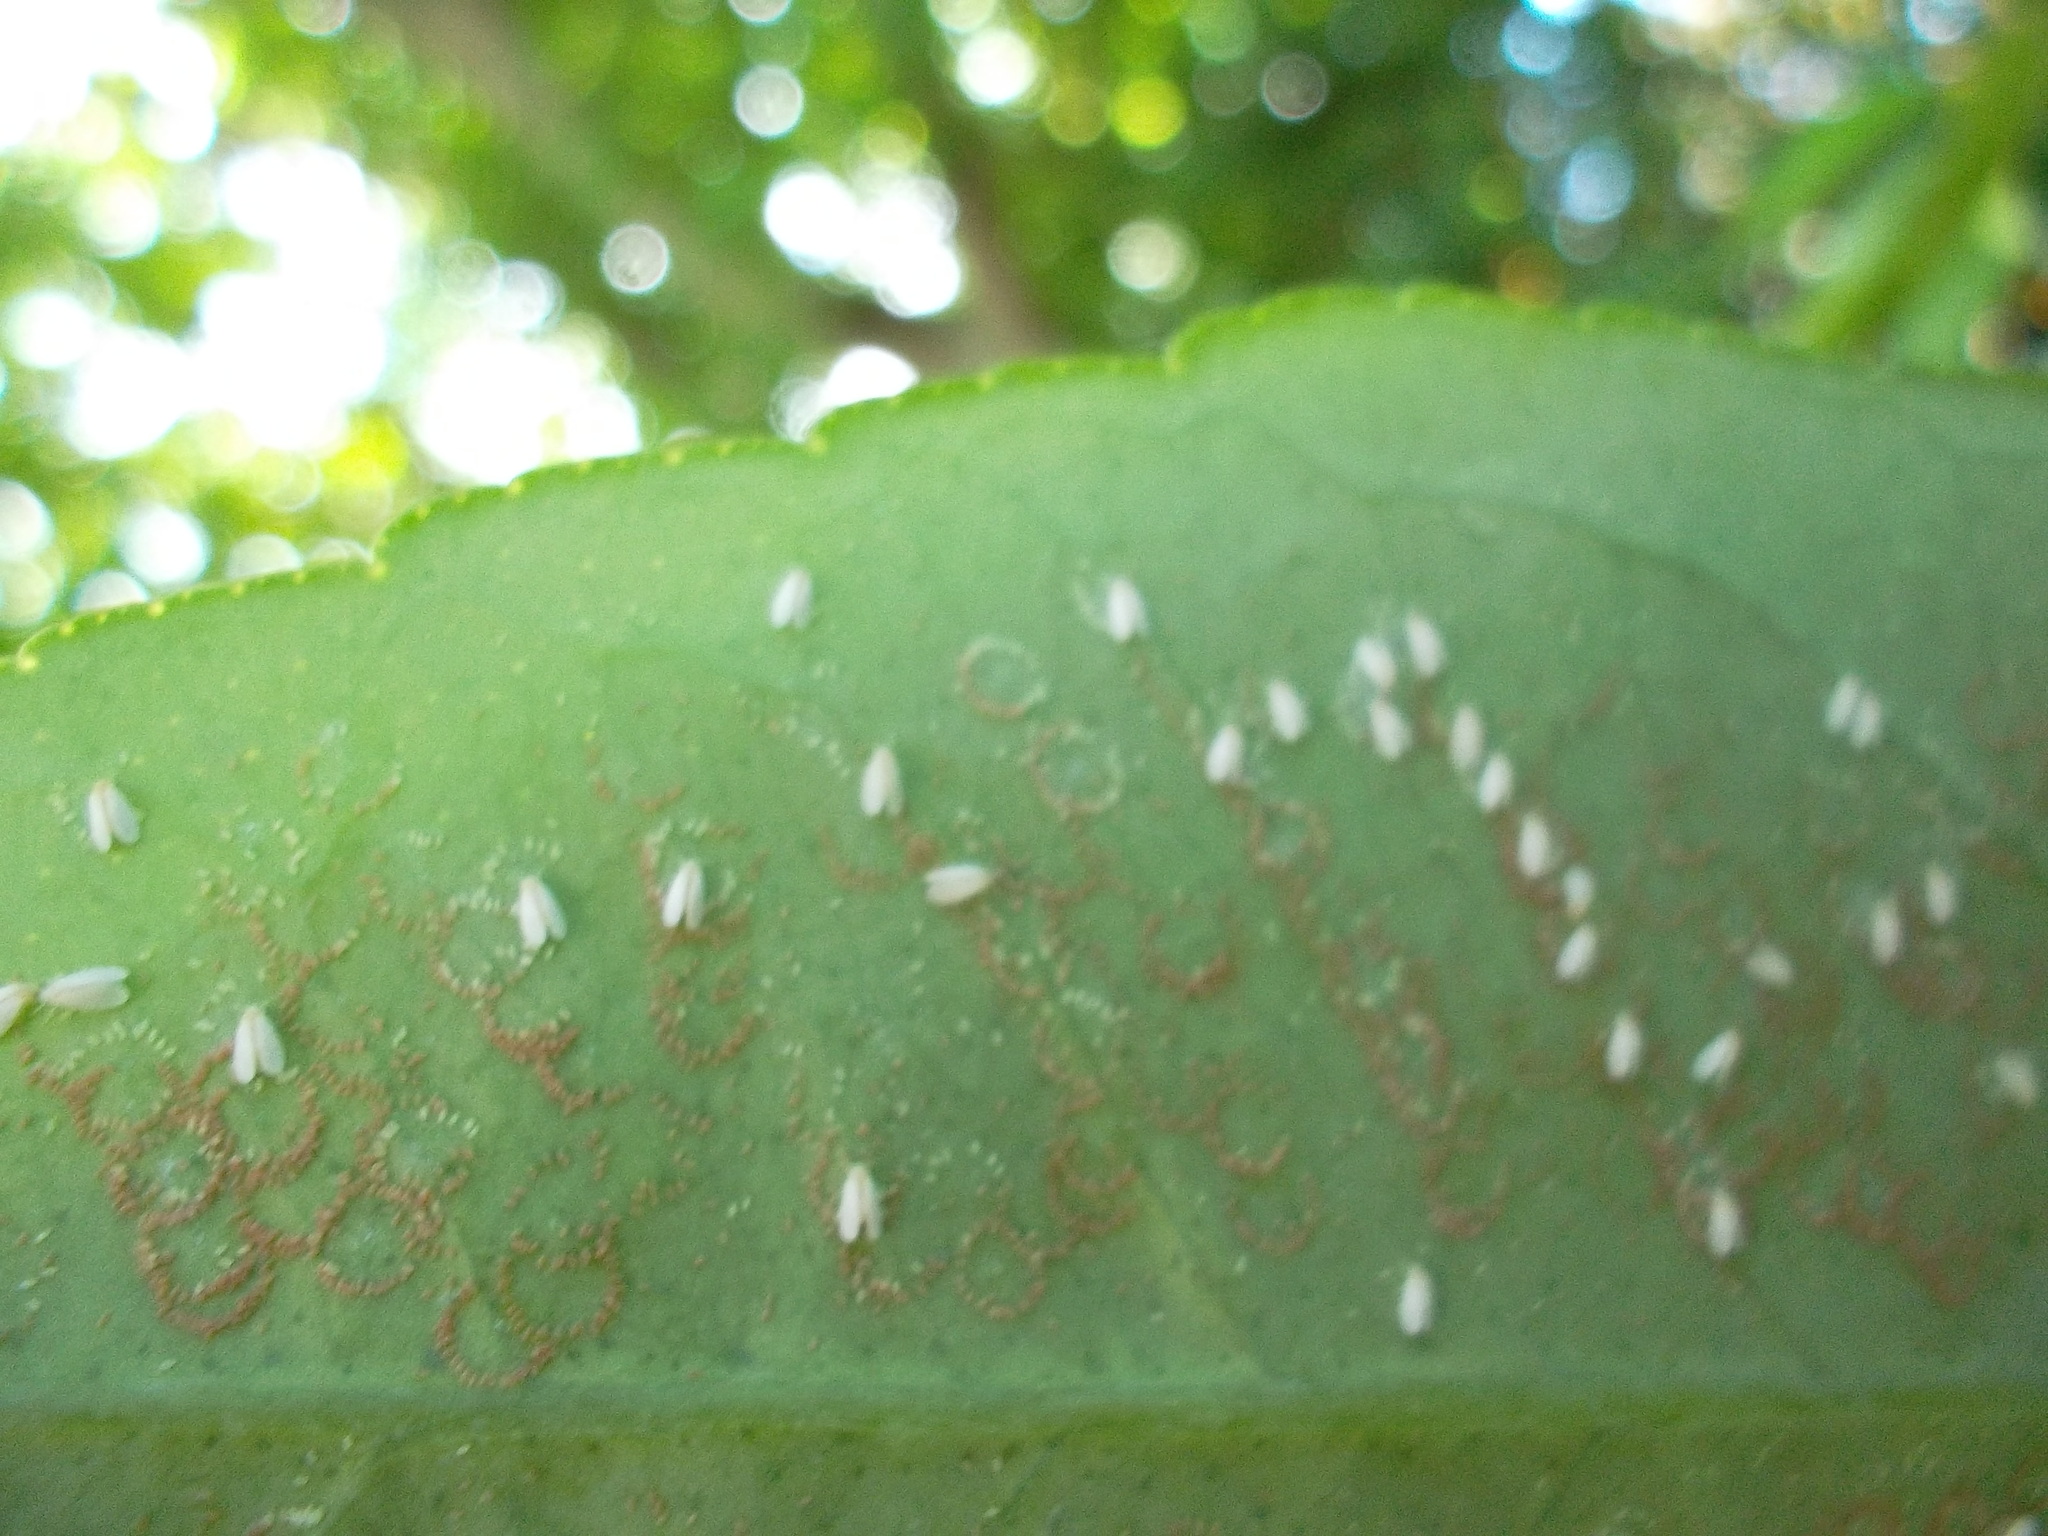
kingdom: Animalia
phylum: Arthropoda
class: Insecta
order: Hemiptera
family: Aleyrodidae
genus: Orchamoplatus
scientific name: Orchamoplatus citri
